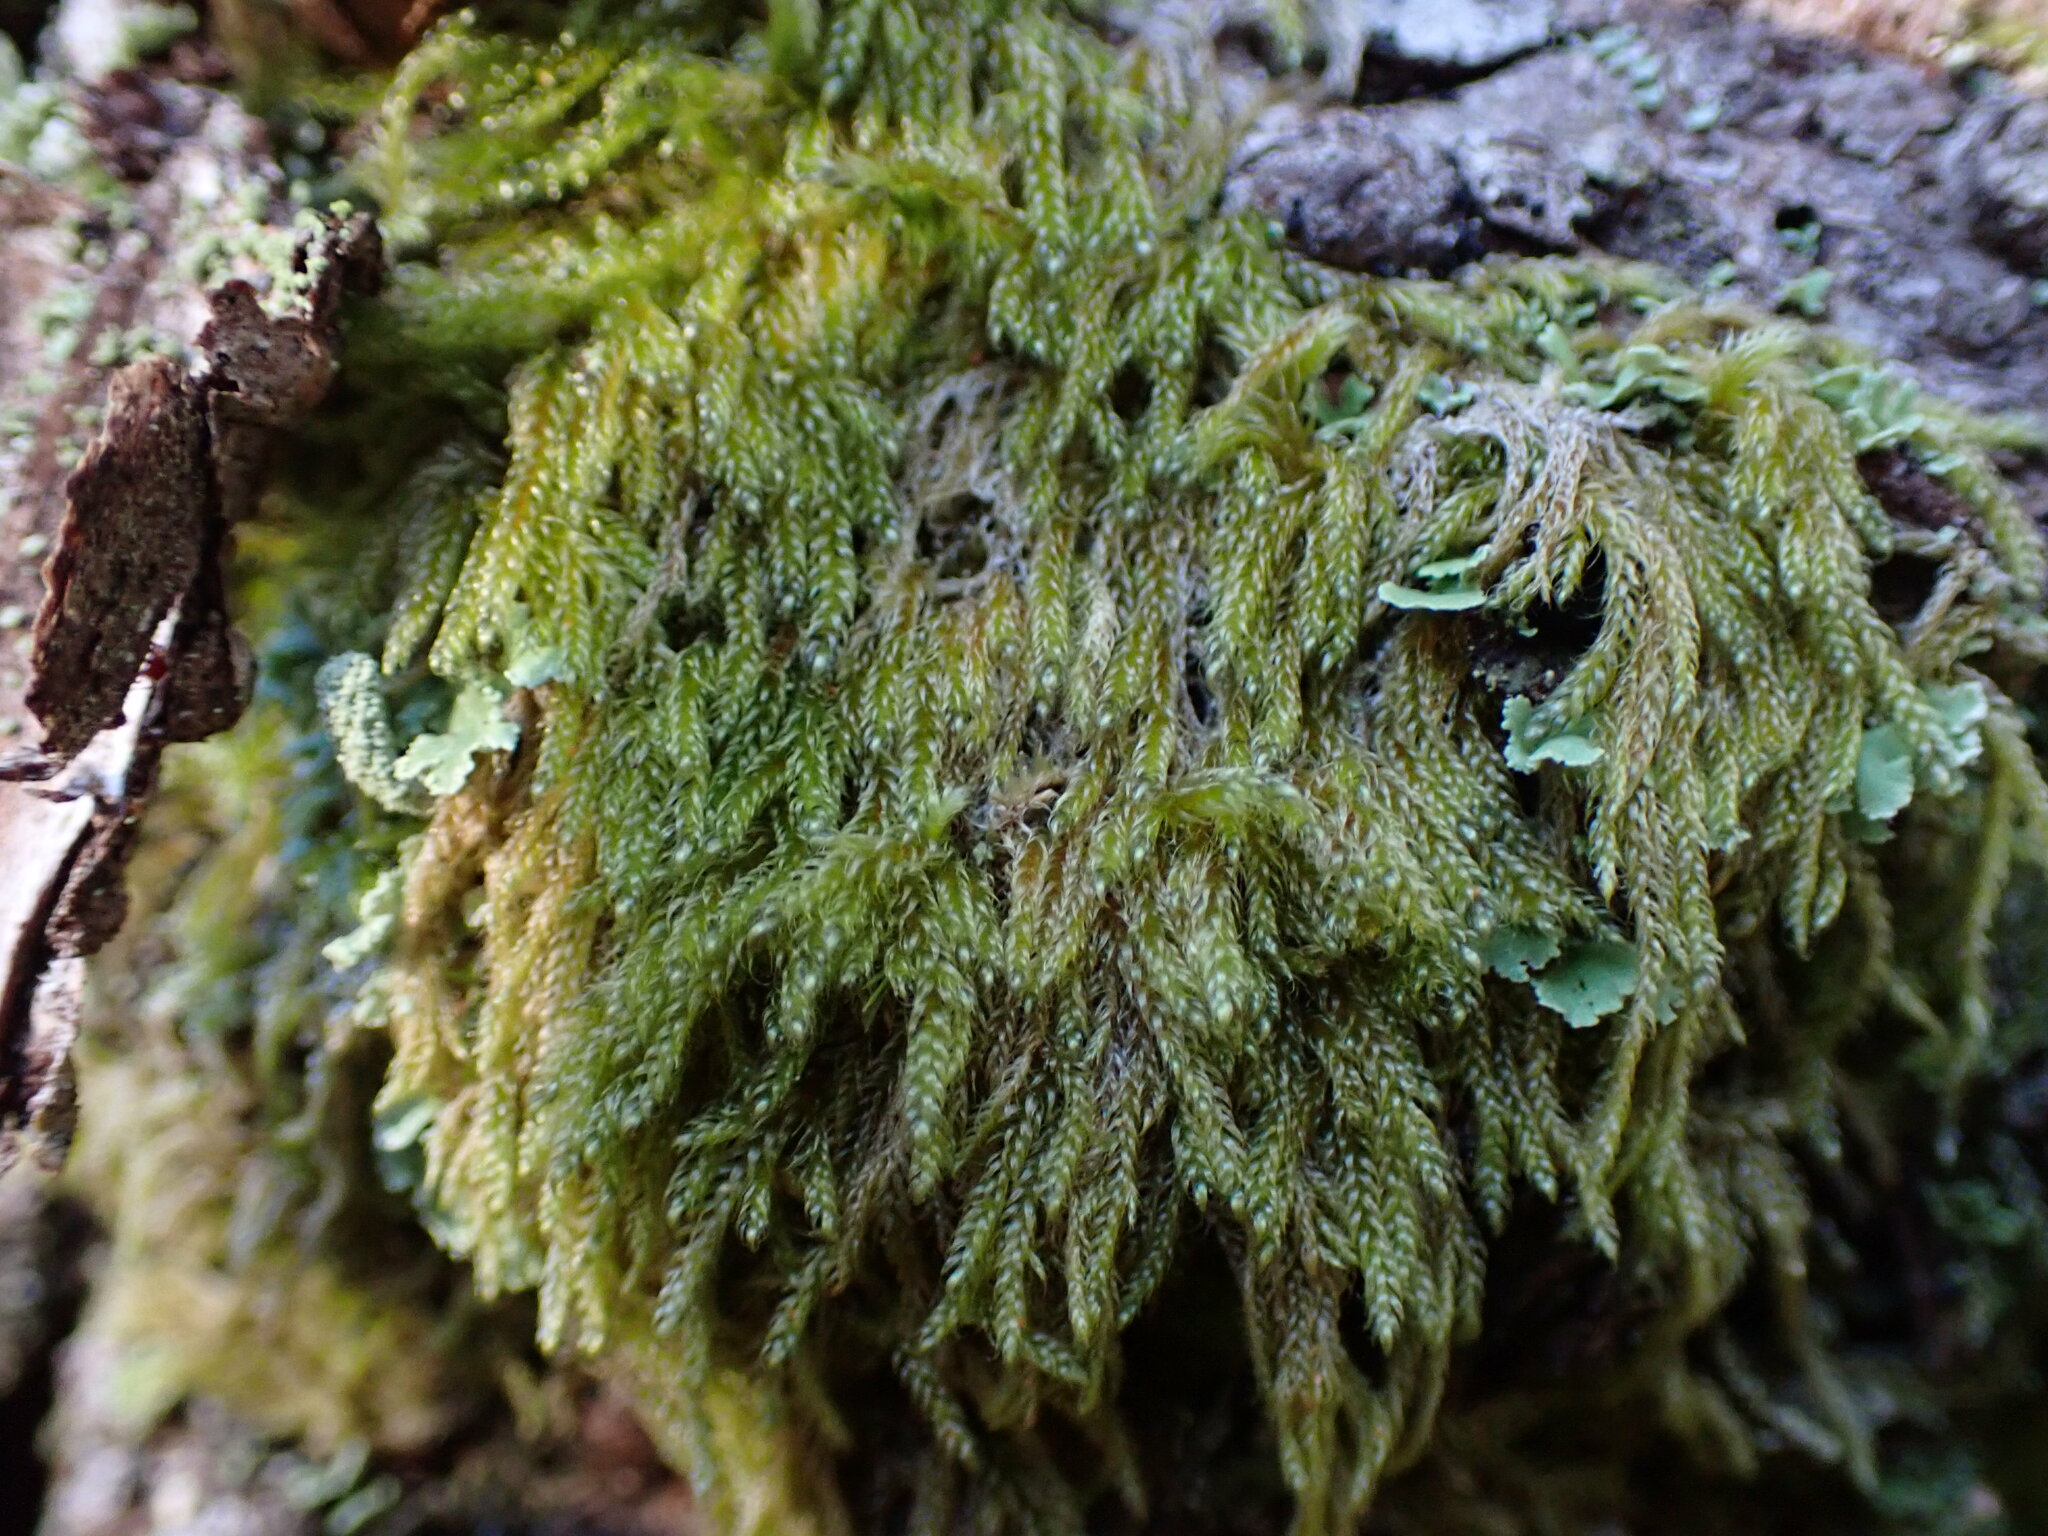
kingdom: Plantae
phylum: Bryophyta
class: Bryopsida
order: Hypnales
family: Pylaisiadelphaceae
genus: Trochophyllohypnum
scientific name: Trochophyllohypnum circinale
